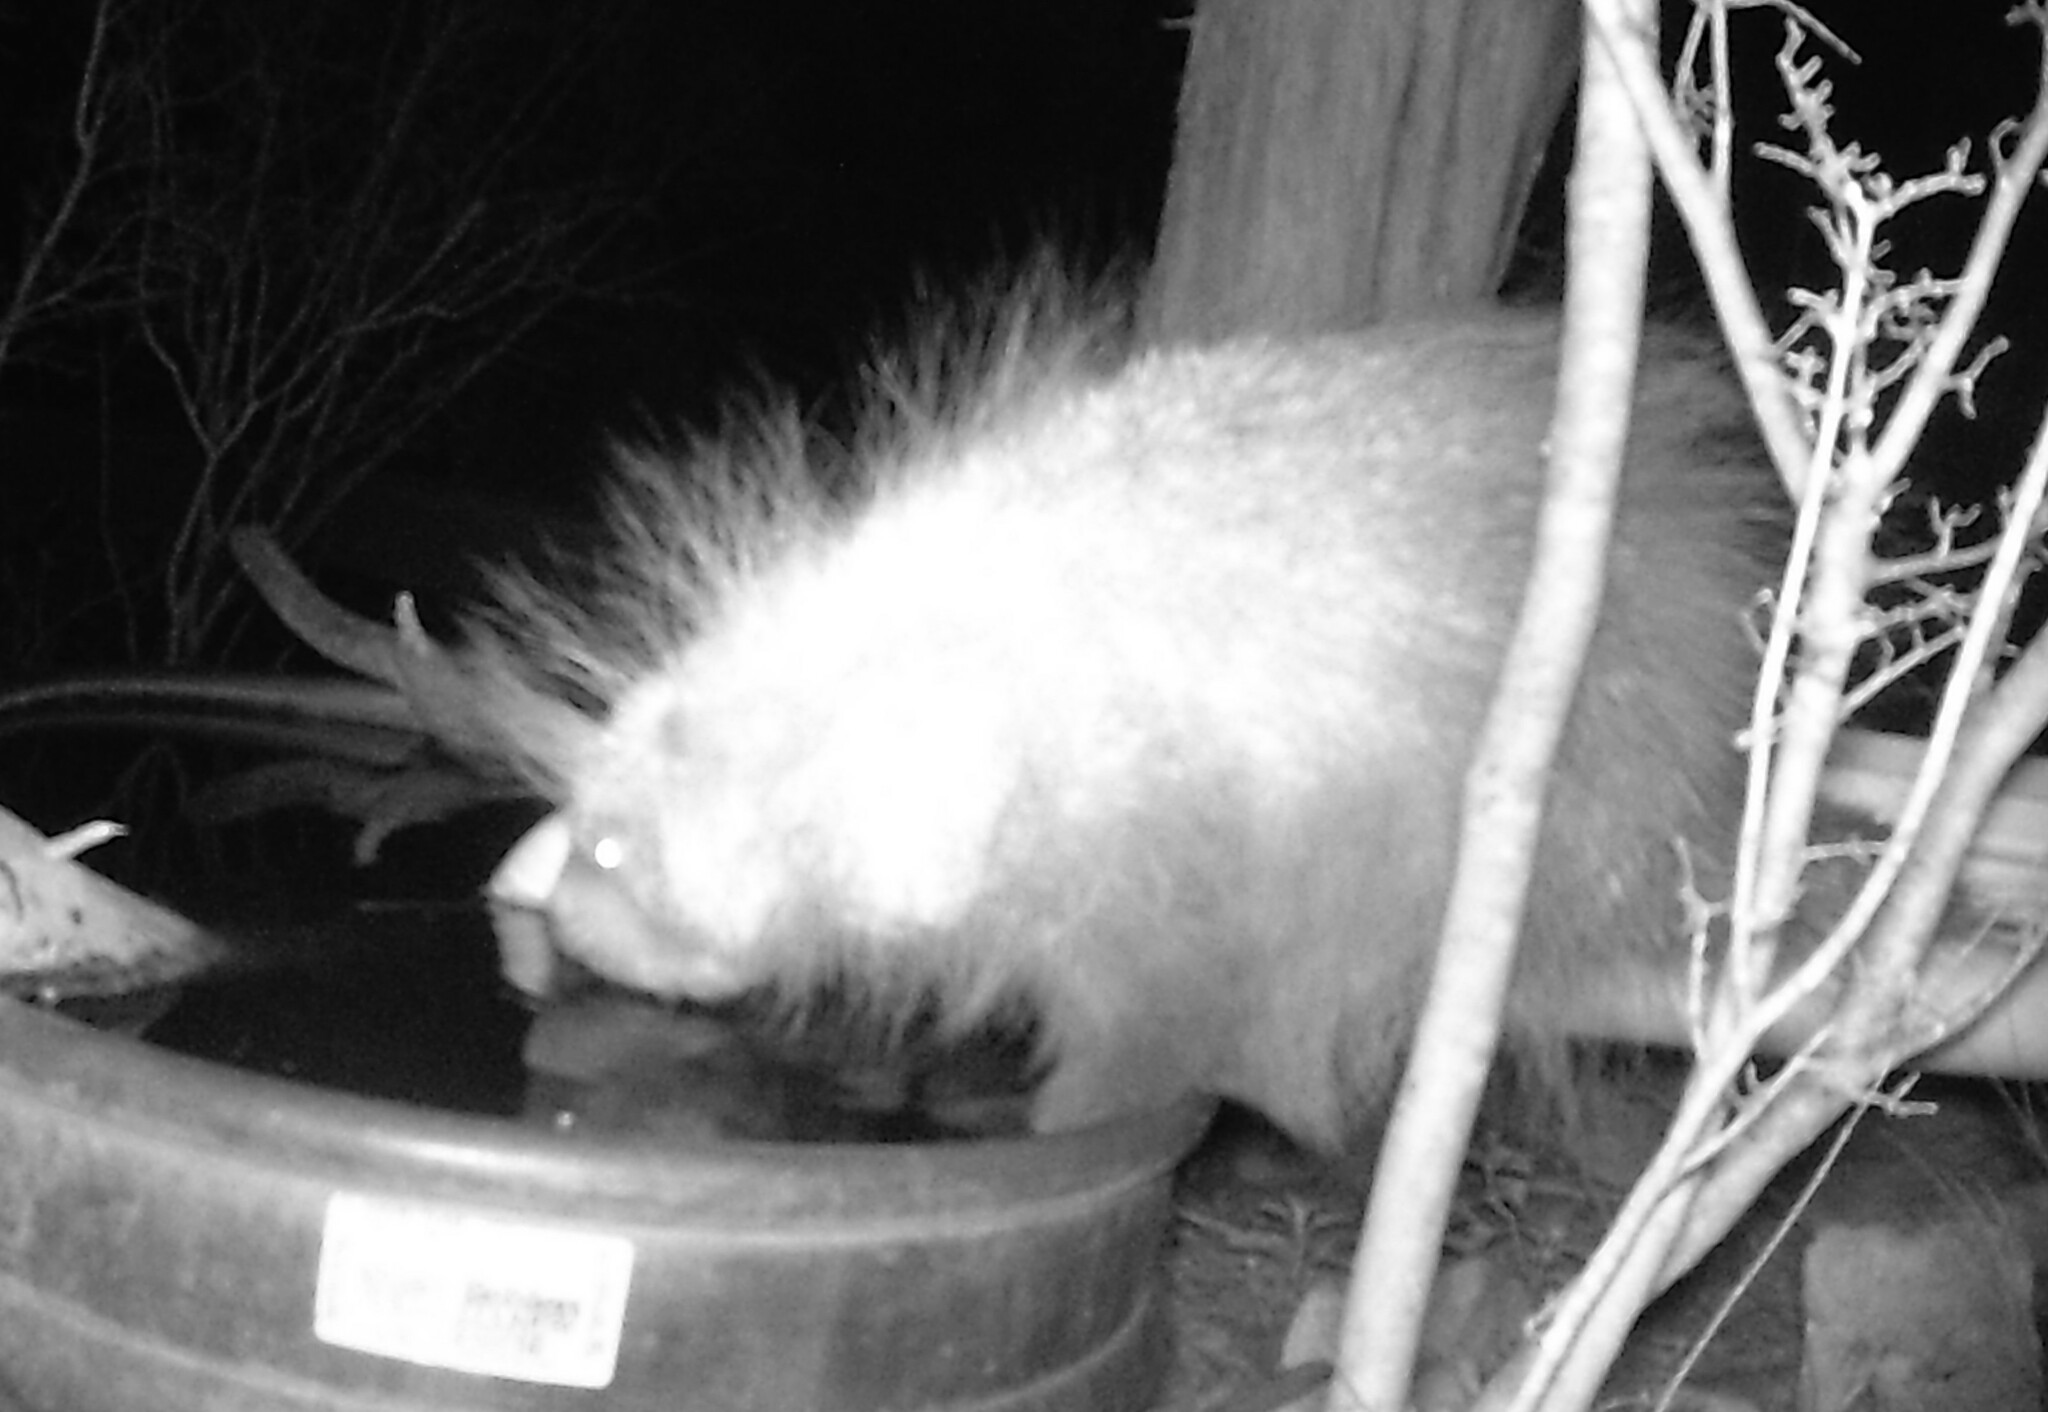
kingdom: Animalia
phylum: Chordata
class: Mammalia
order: Rodentia
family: Erethizontidae
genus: Erethizon
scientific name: Erethizon dorsatus
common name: North american porcupine
